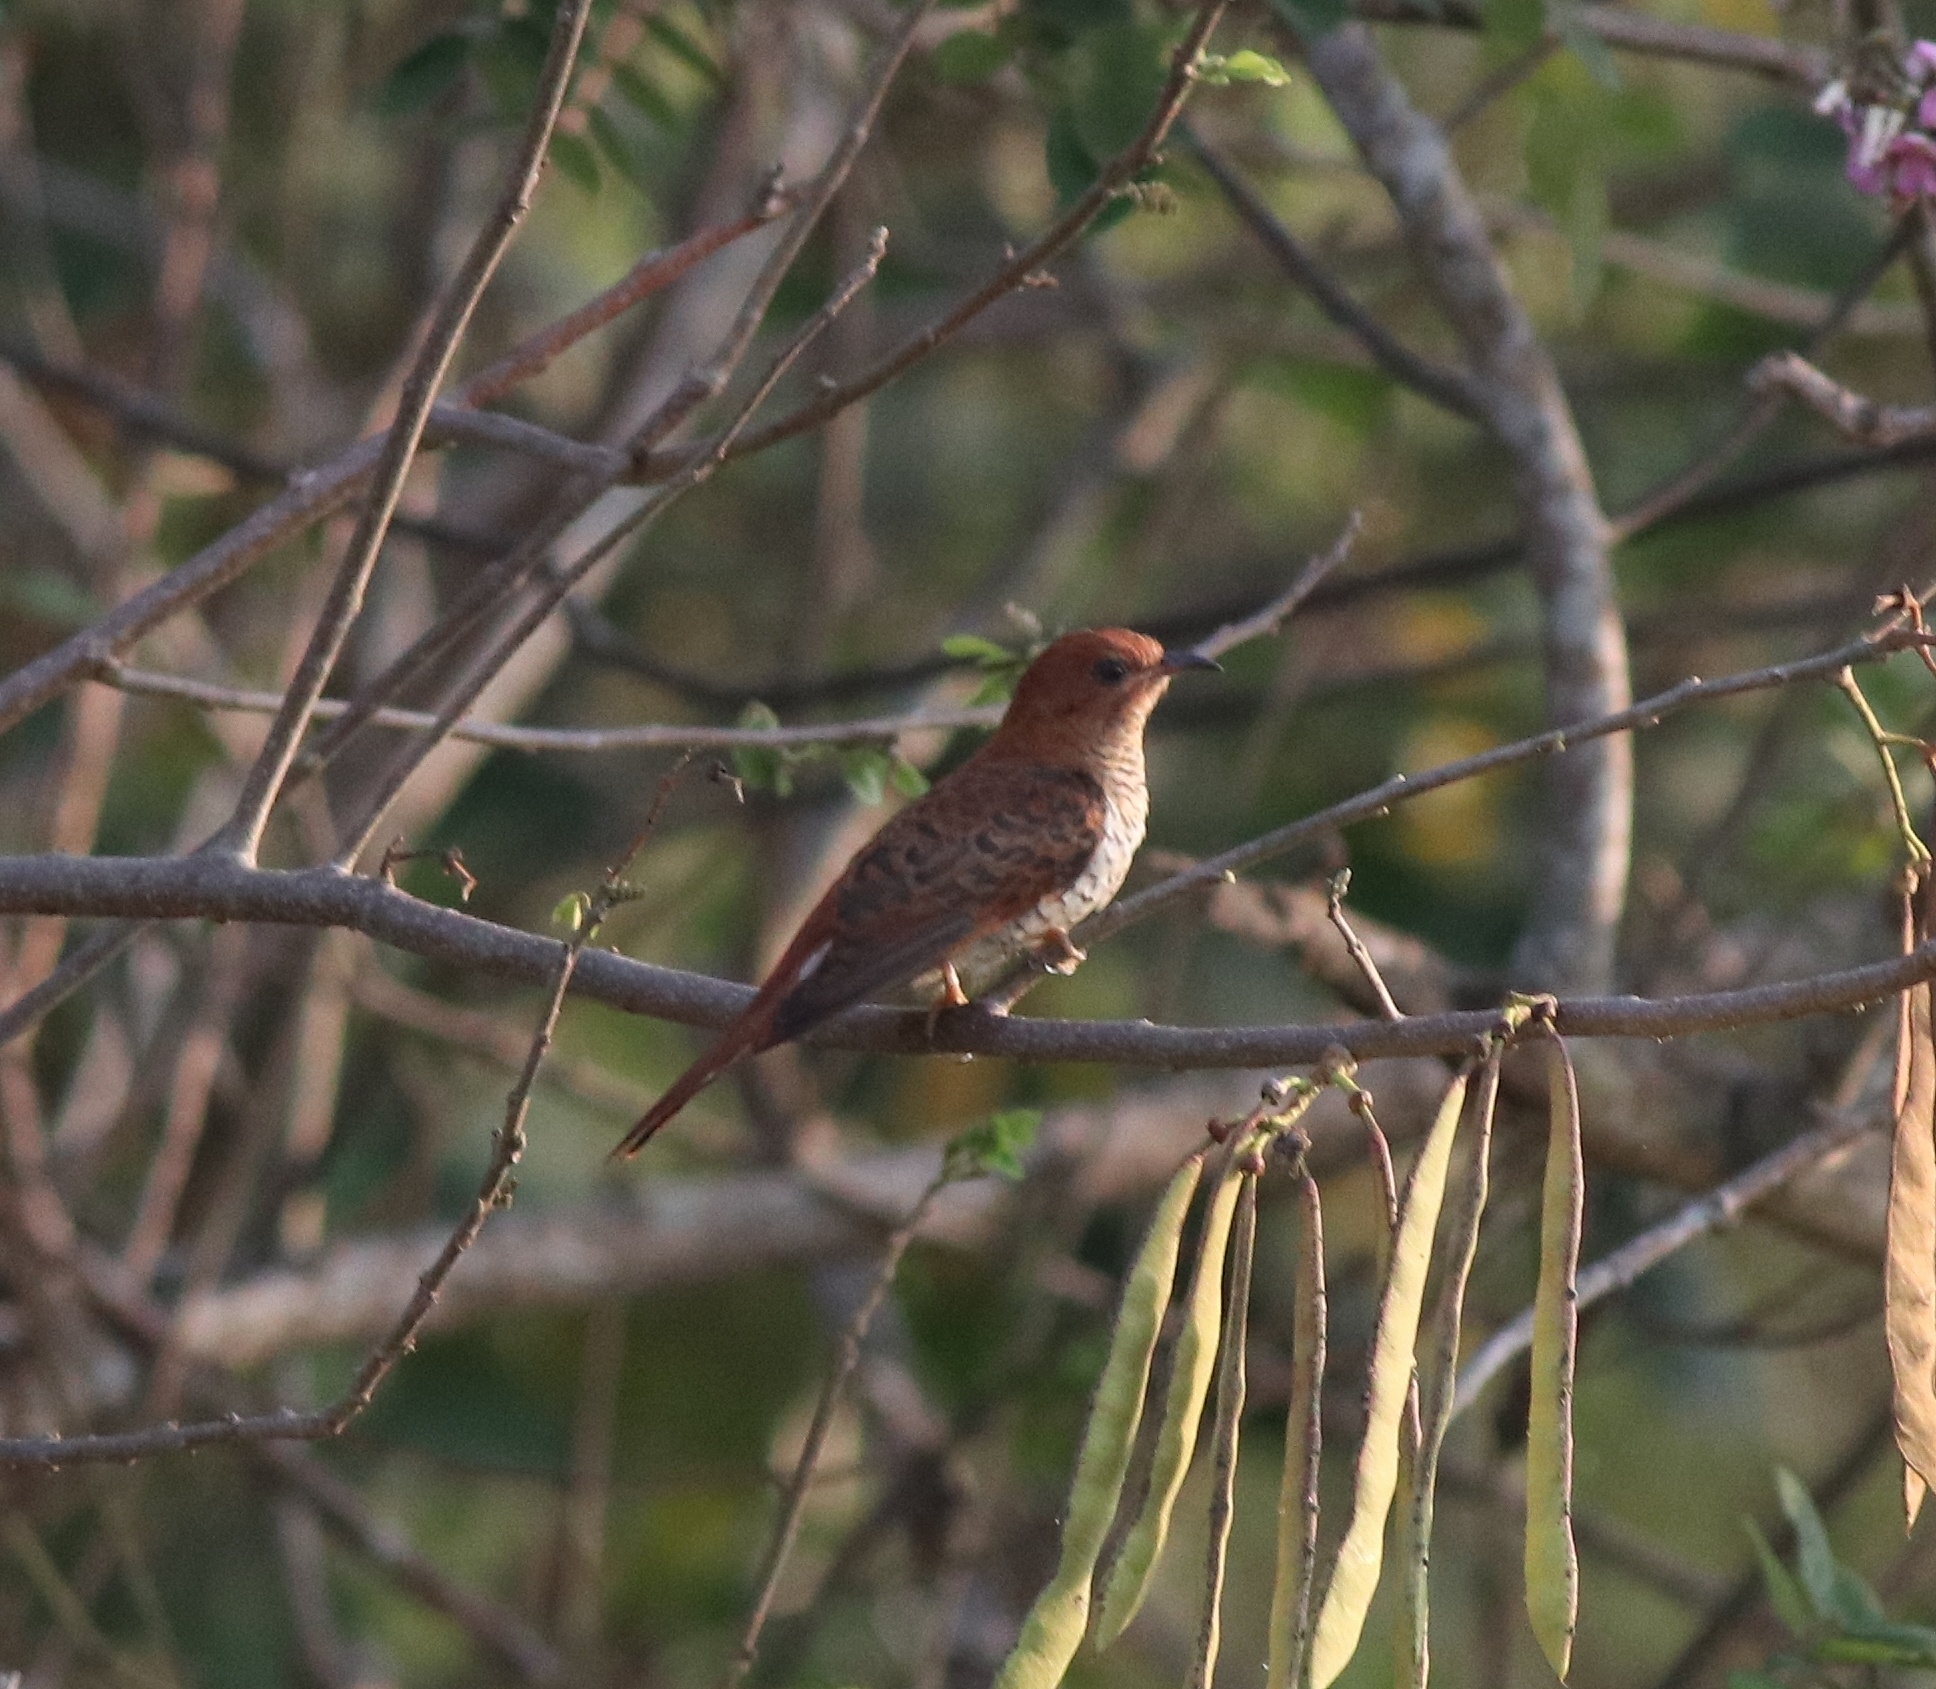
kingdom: Animalia
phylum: Chordata
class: Aves
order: Cuculiformes
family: Cuculidae
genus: Cacomantis
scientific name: Cacomantis passerinus
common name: Grey-bellied cuckoo
